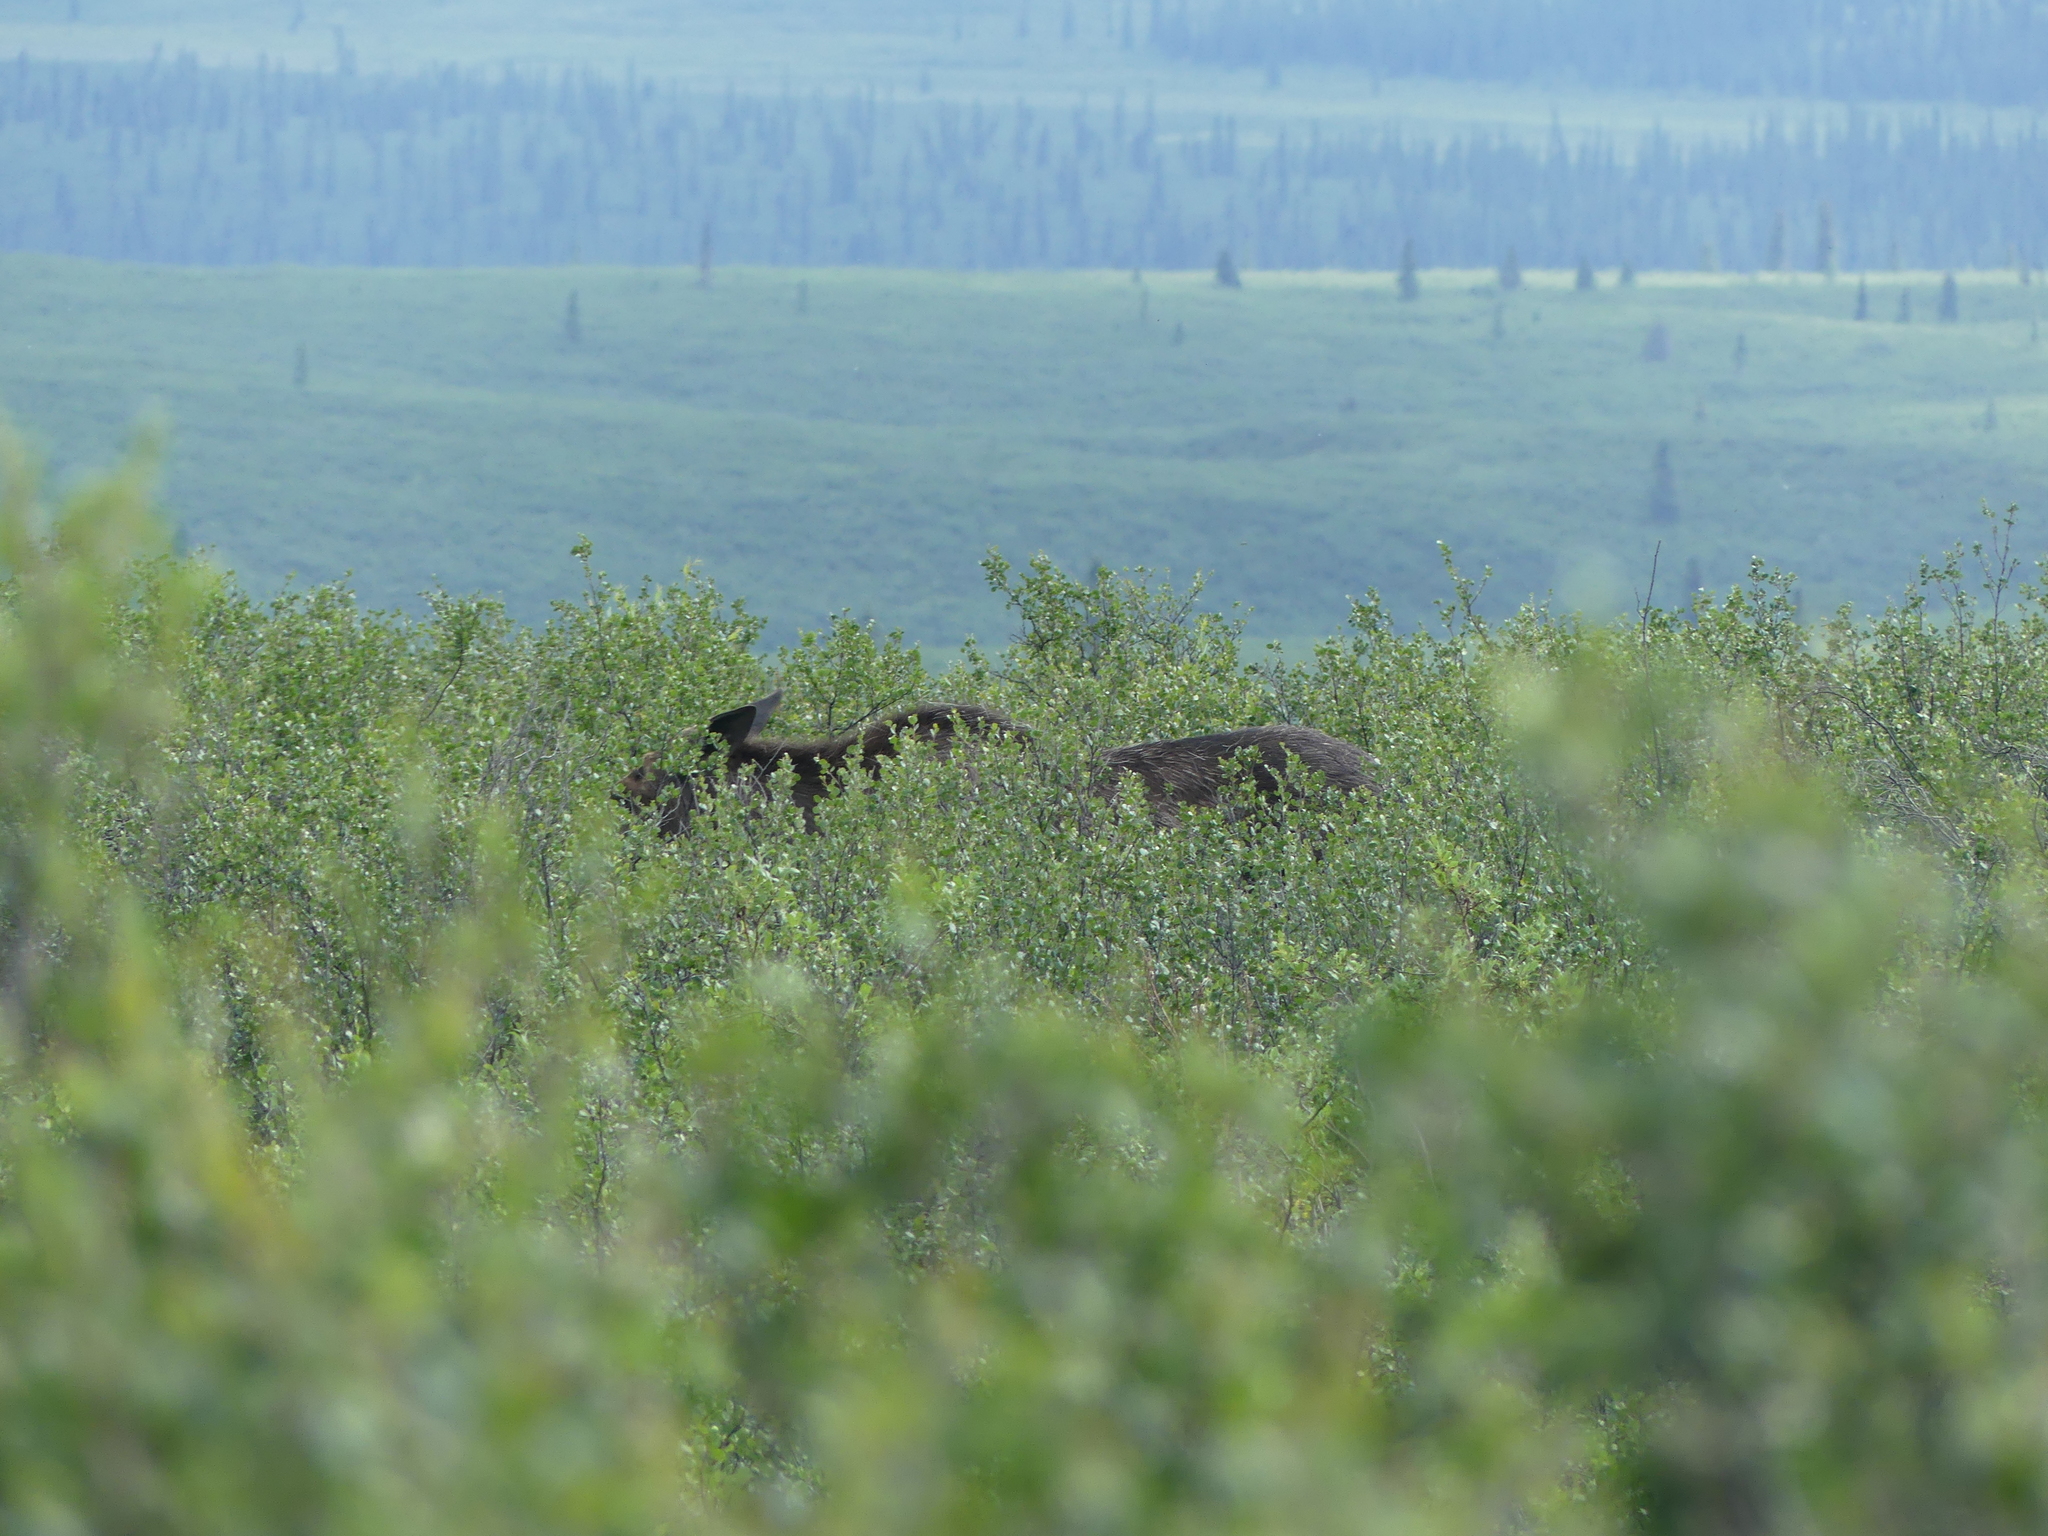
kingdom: Animalia
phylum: Chordata
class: Mammalia
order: Artiodactyla
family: Cervidae
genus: Alces
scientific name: Alces alces
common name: Moose
